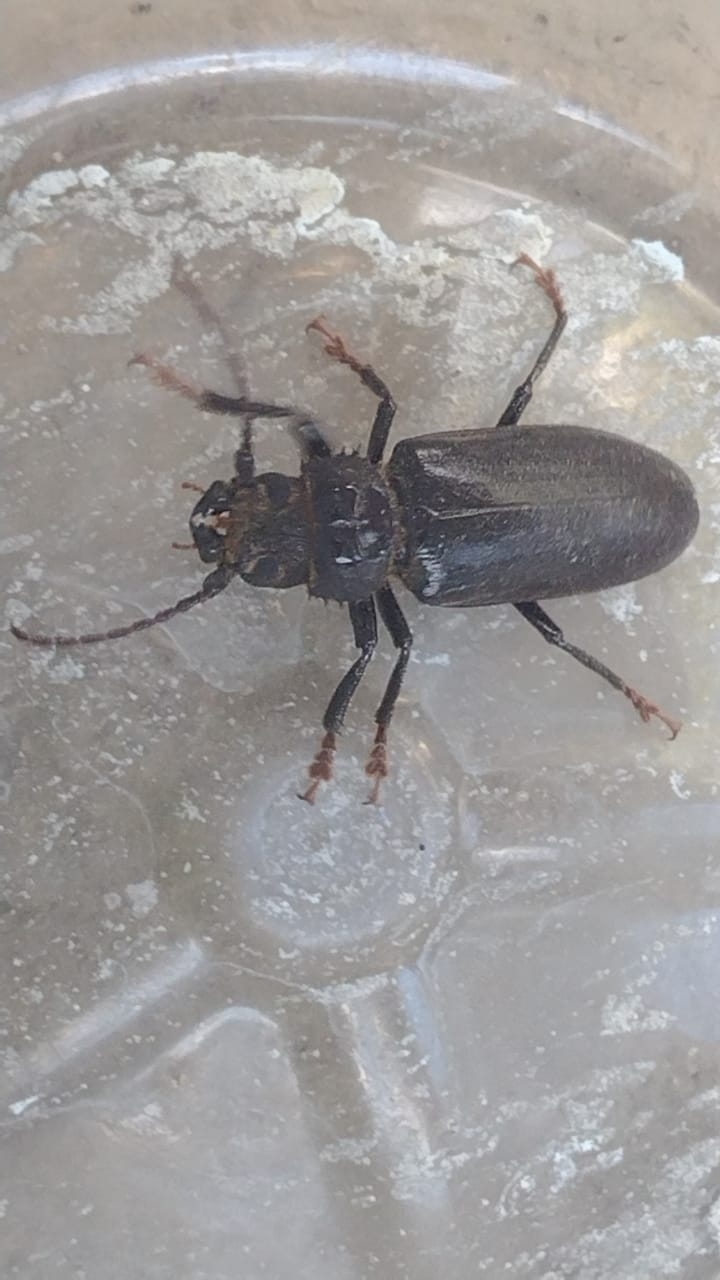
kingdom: Animalia
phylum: Arthropoda
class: Insecta
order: Coleoptera
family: Cerambycidae
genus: Aplagiognathus
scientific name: Aplagiognathus spinosus
